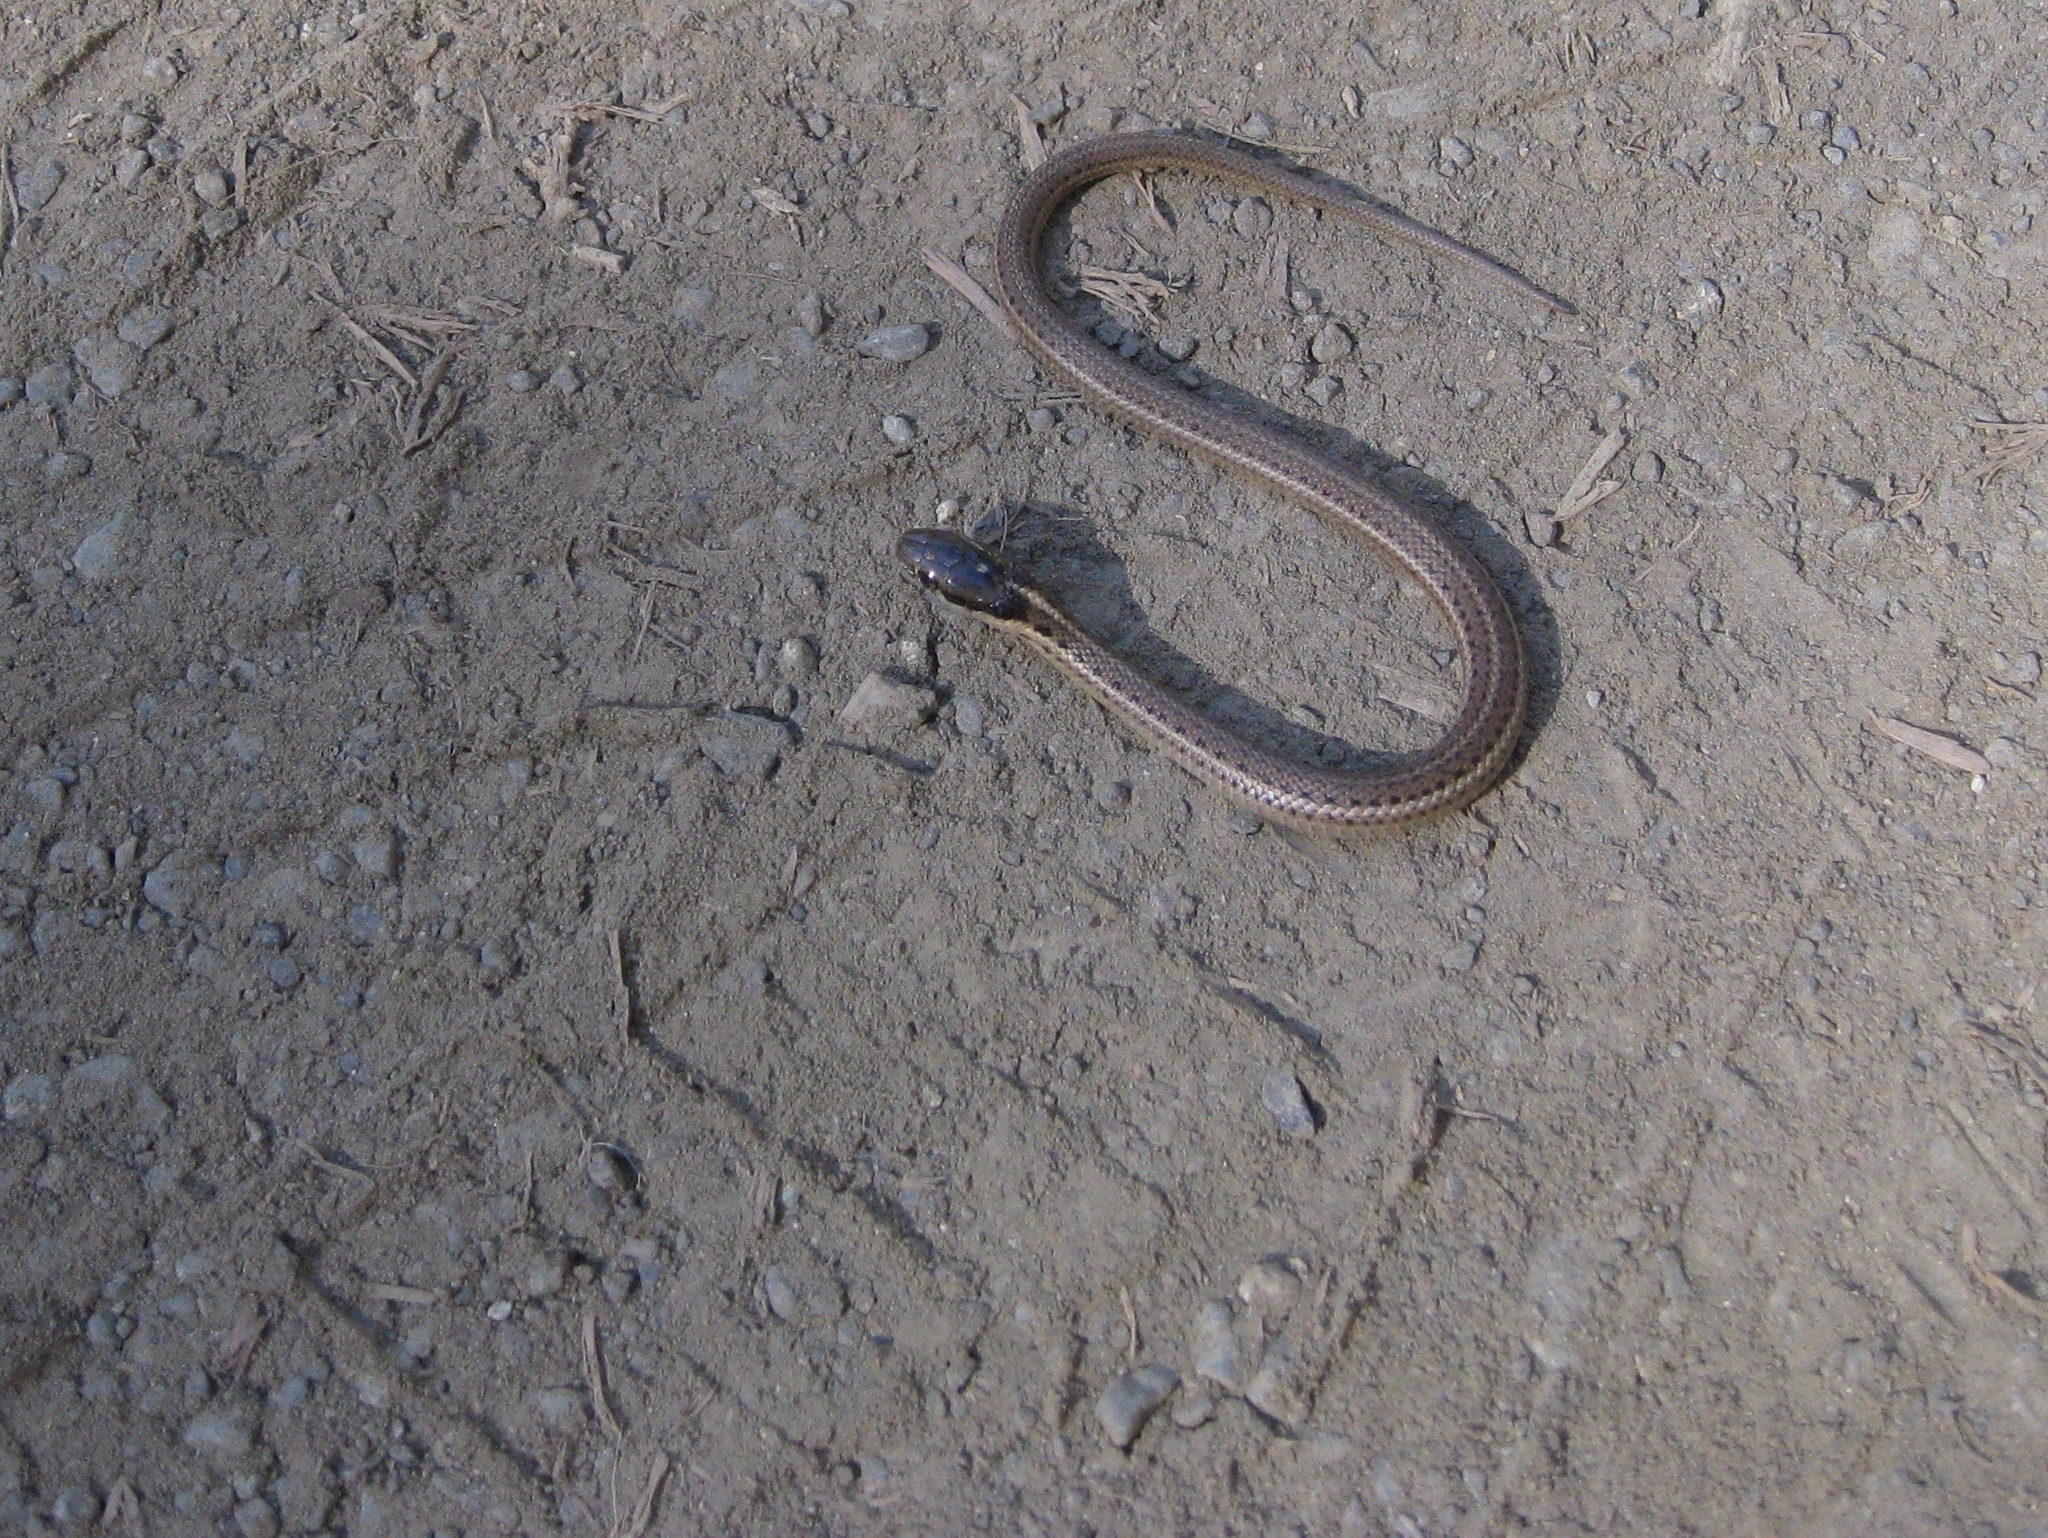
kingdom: Animalia
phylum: Chordata
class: Squamata
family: Colubridae
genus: Thamnophis
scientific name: Thamnophis ordinoides
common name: Northwestern garter snake
